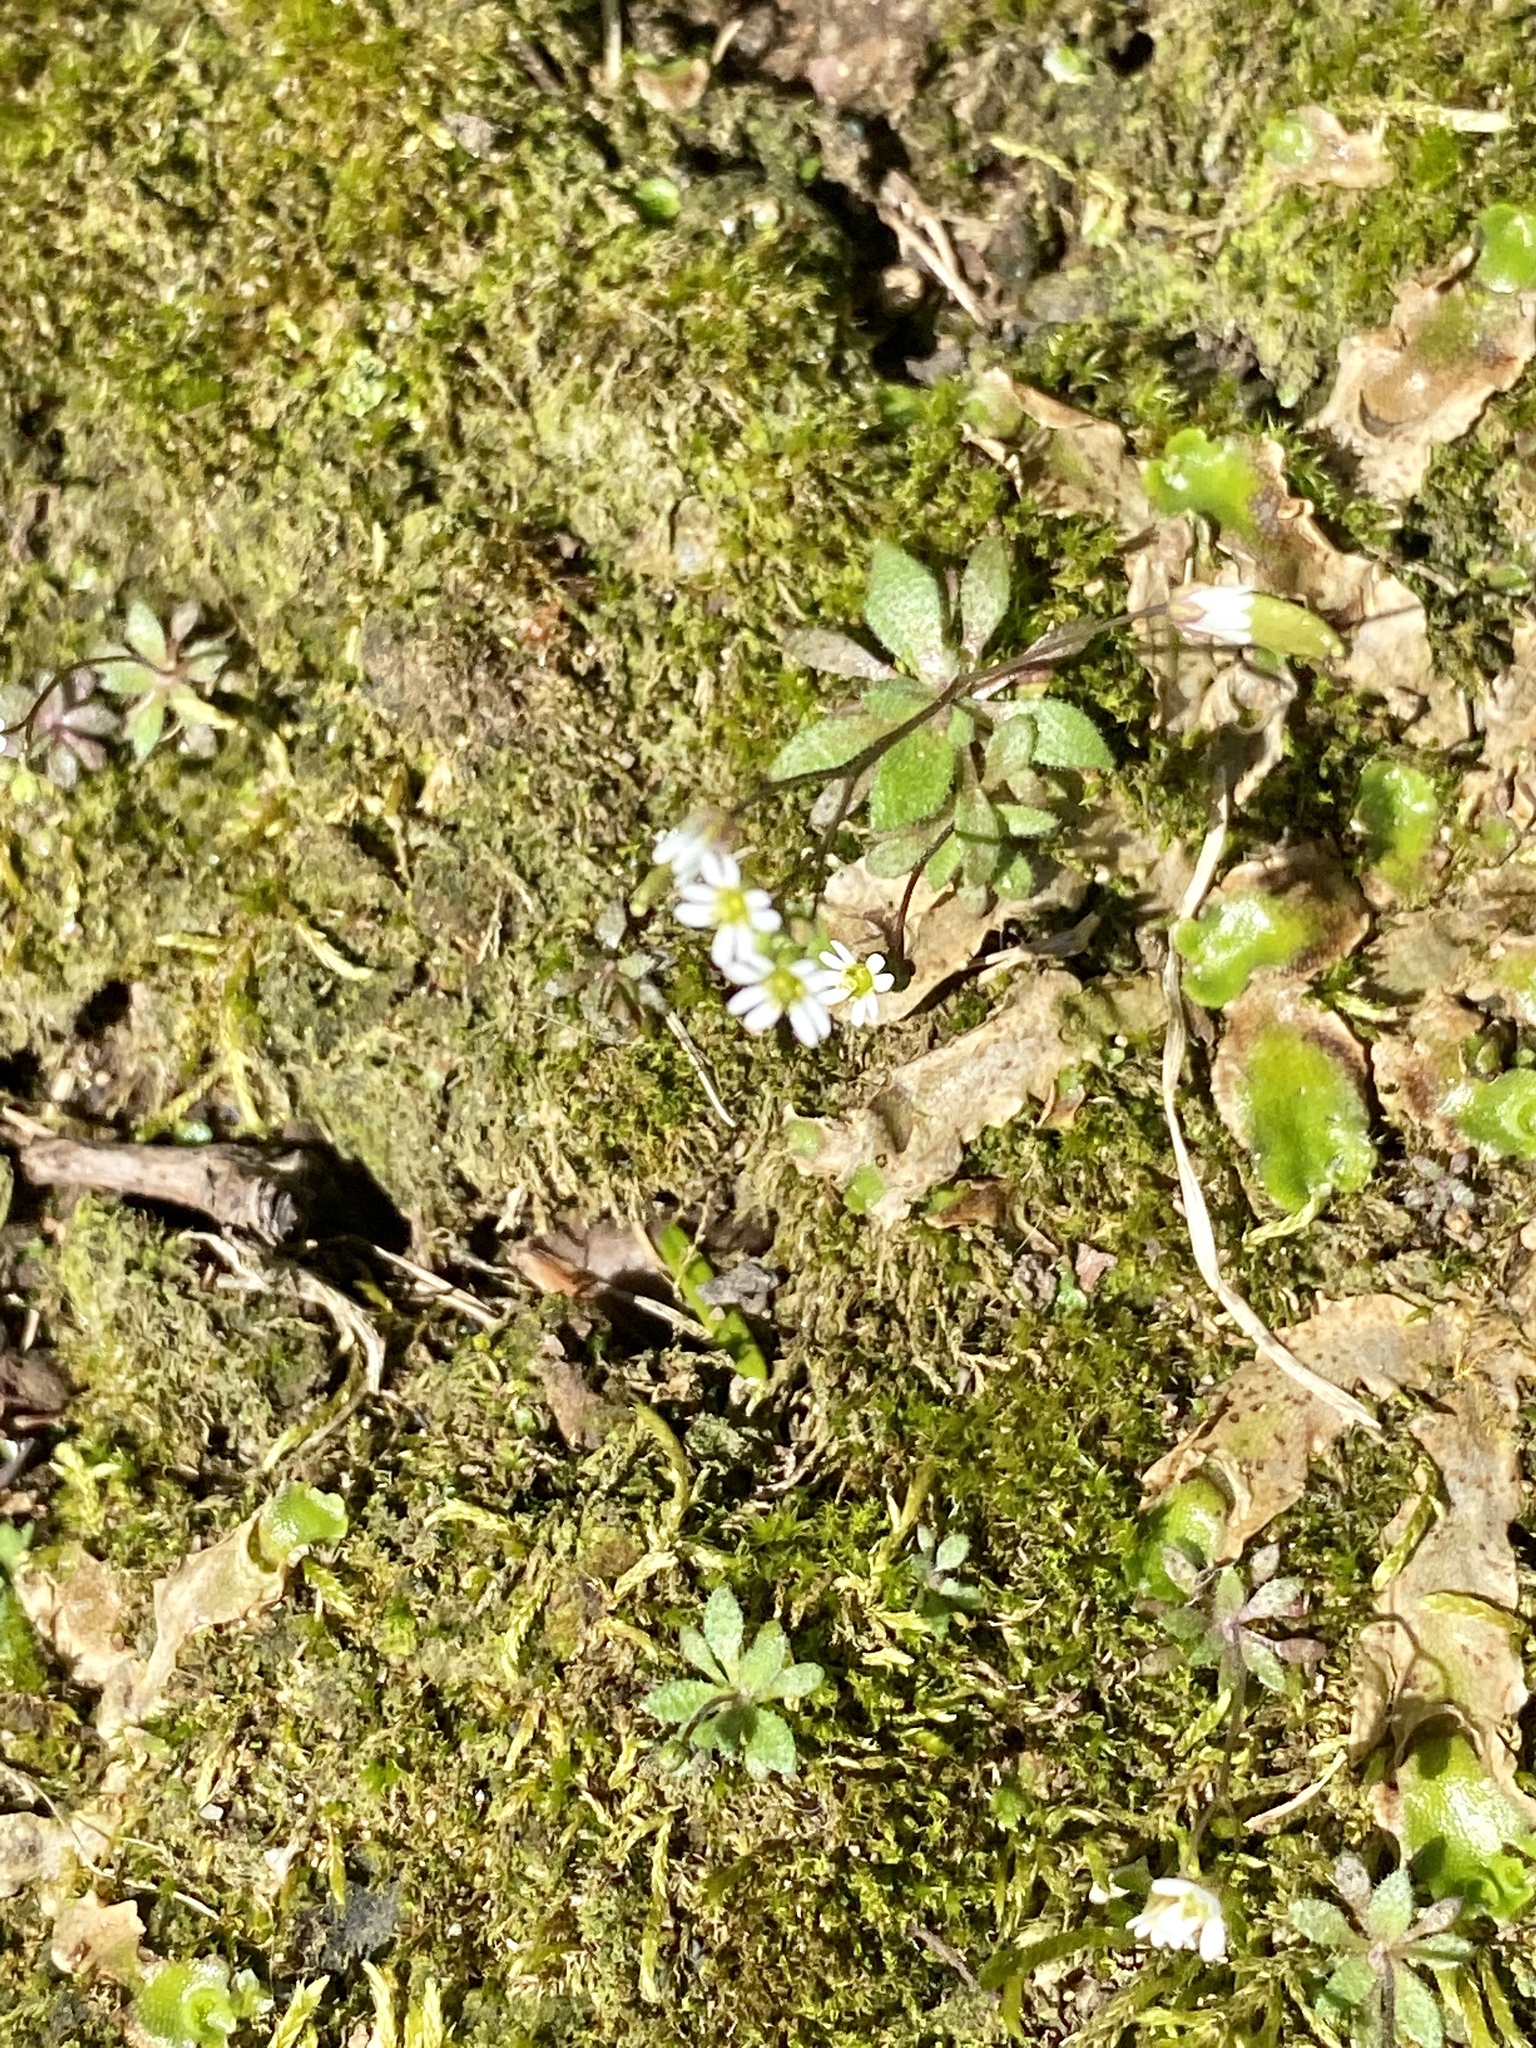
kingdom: Plantae
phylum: Tracheophyta
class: Magnoliopsida
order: Brassicales
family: Brassicaceae
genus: Draba
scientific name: Draba verna
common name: Spring draba
